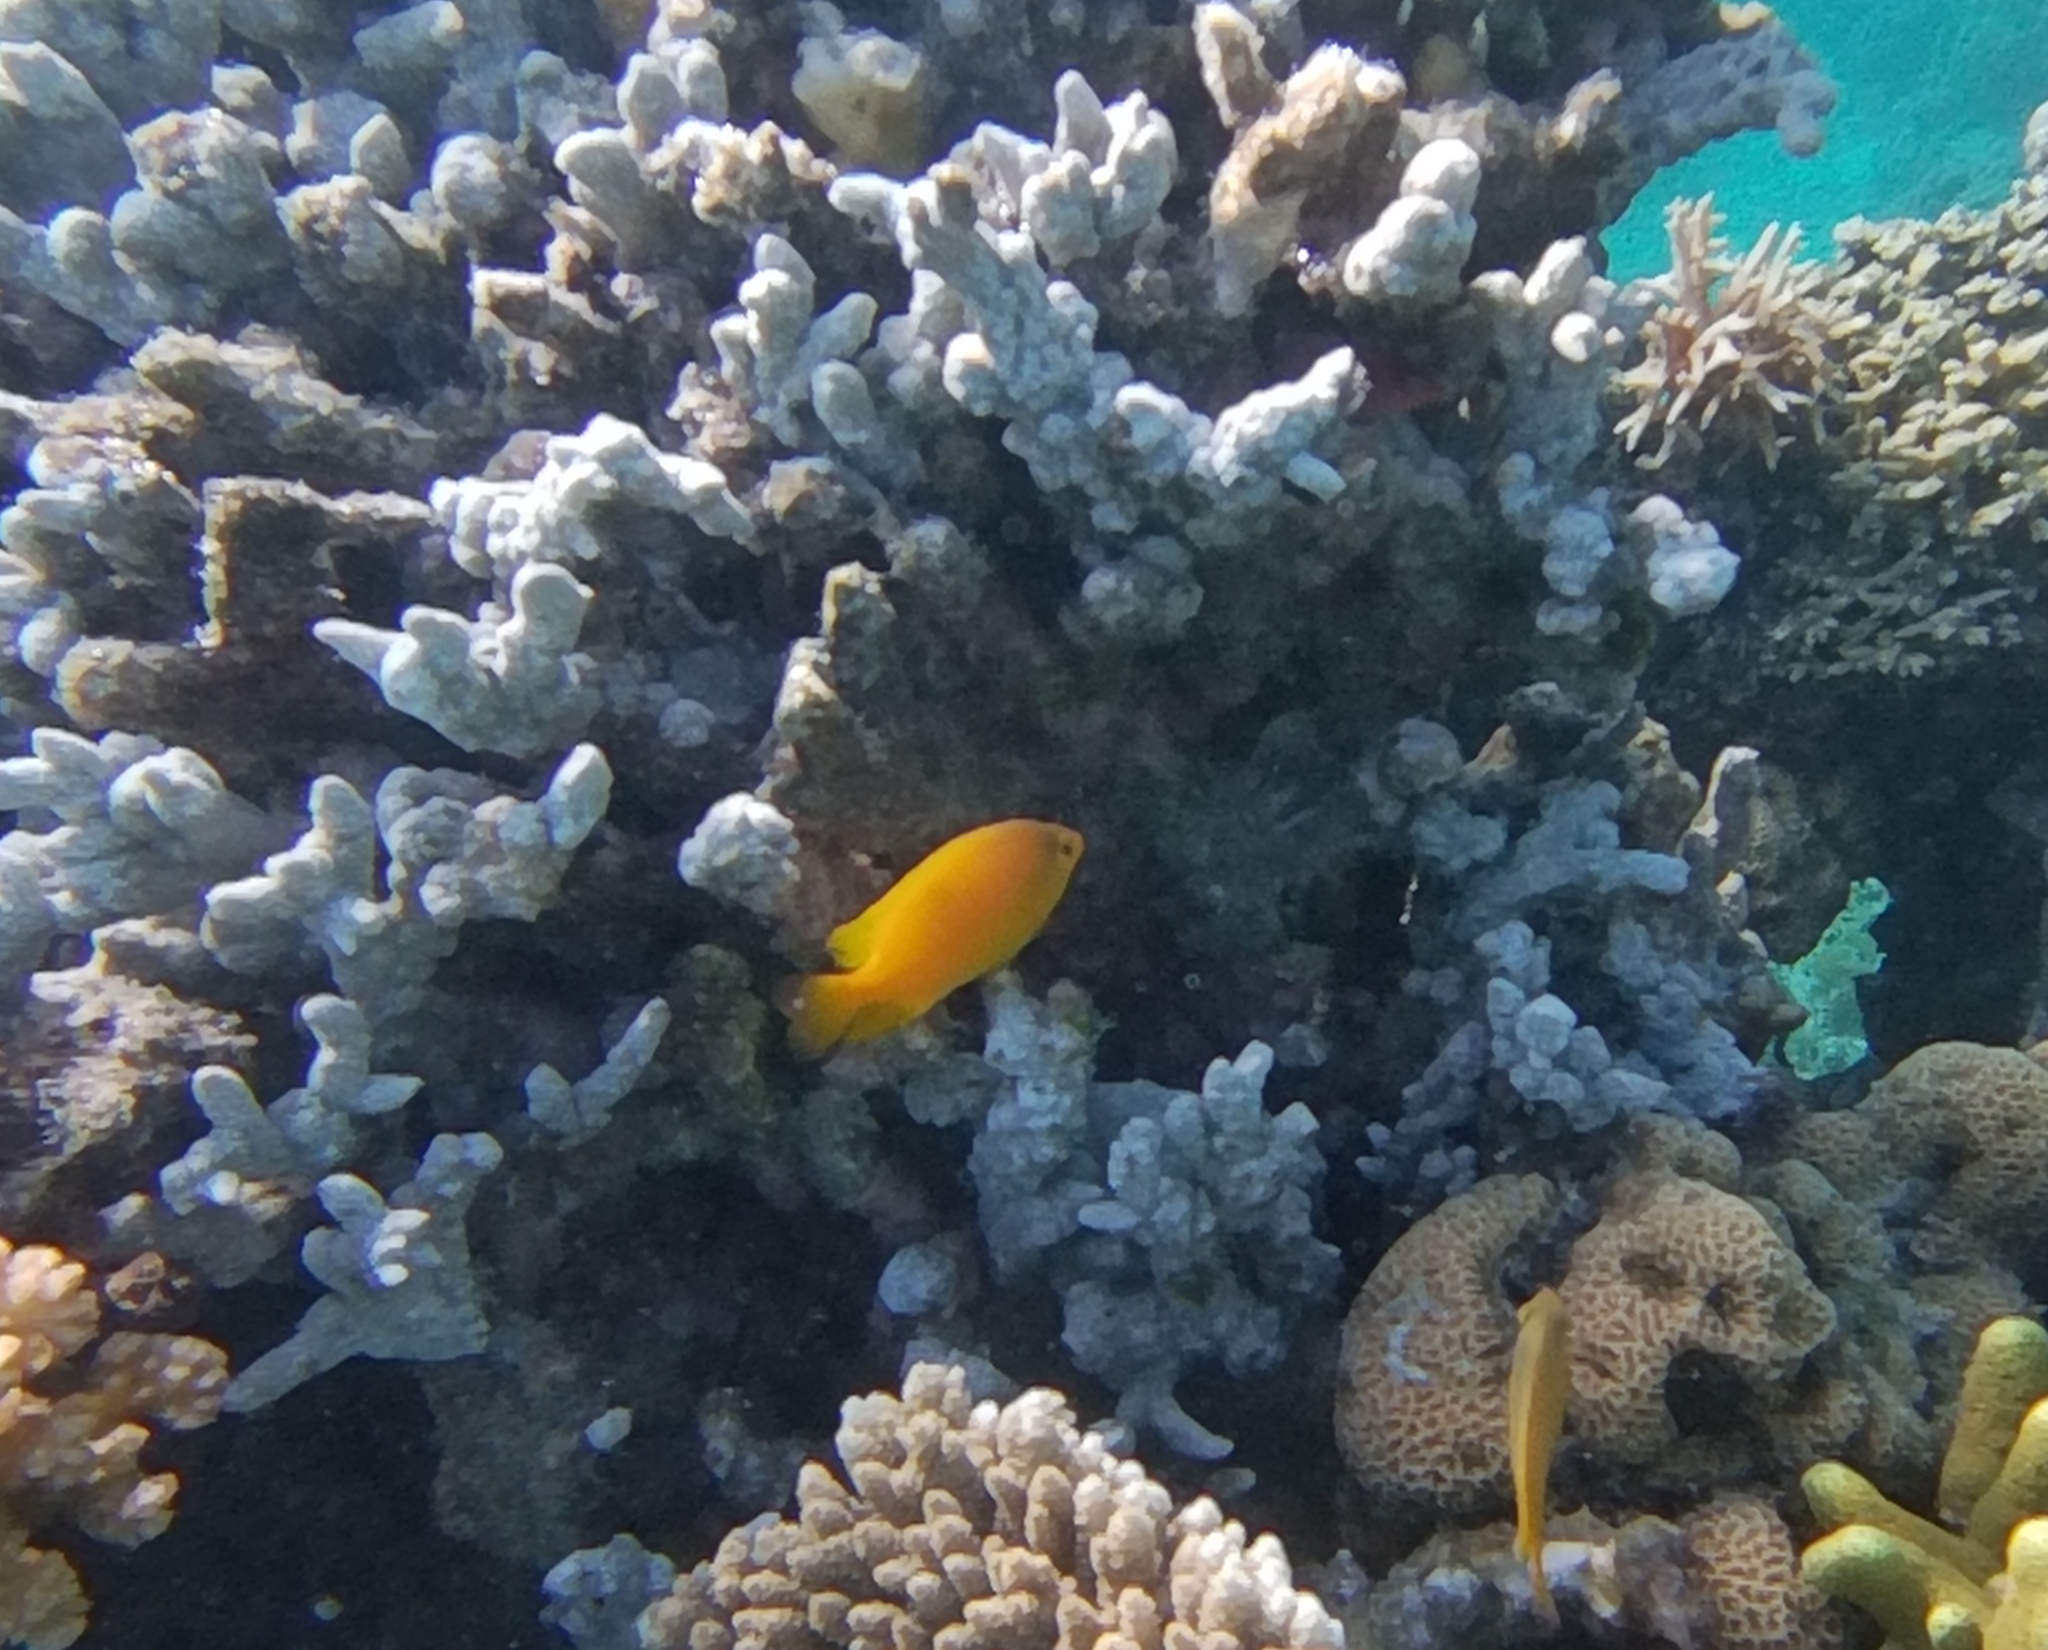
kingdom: Animalia
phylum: Chordata
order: Perciformes
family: Pomacentridae
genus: Pomacentrus
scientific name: Pomacentrus moluccensis
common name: Lemon damsel
